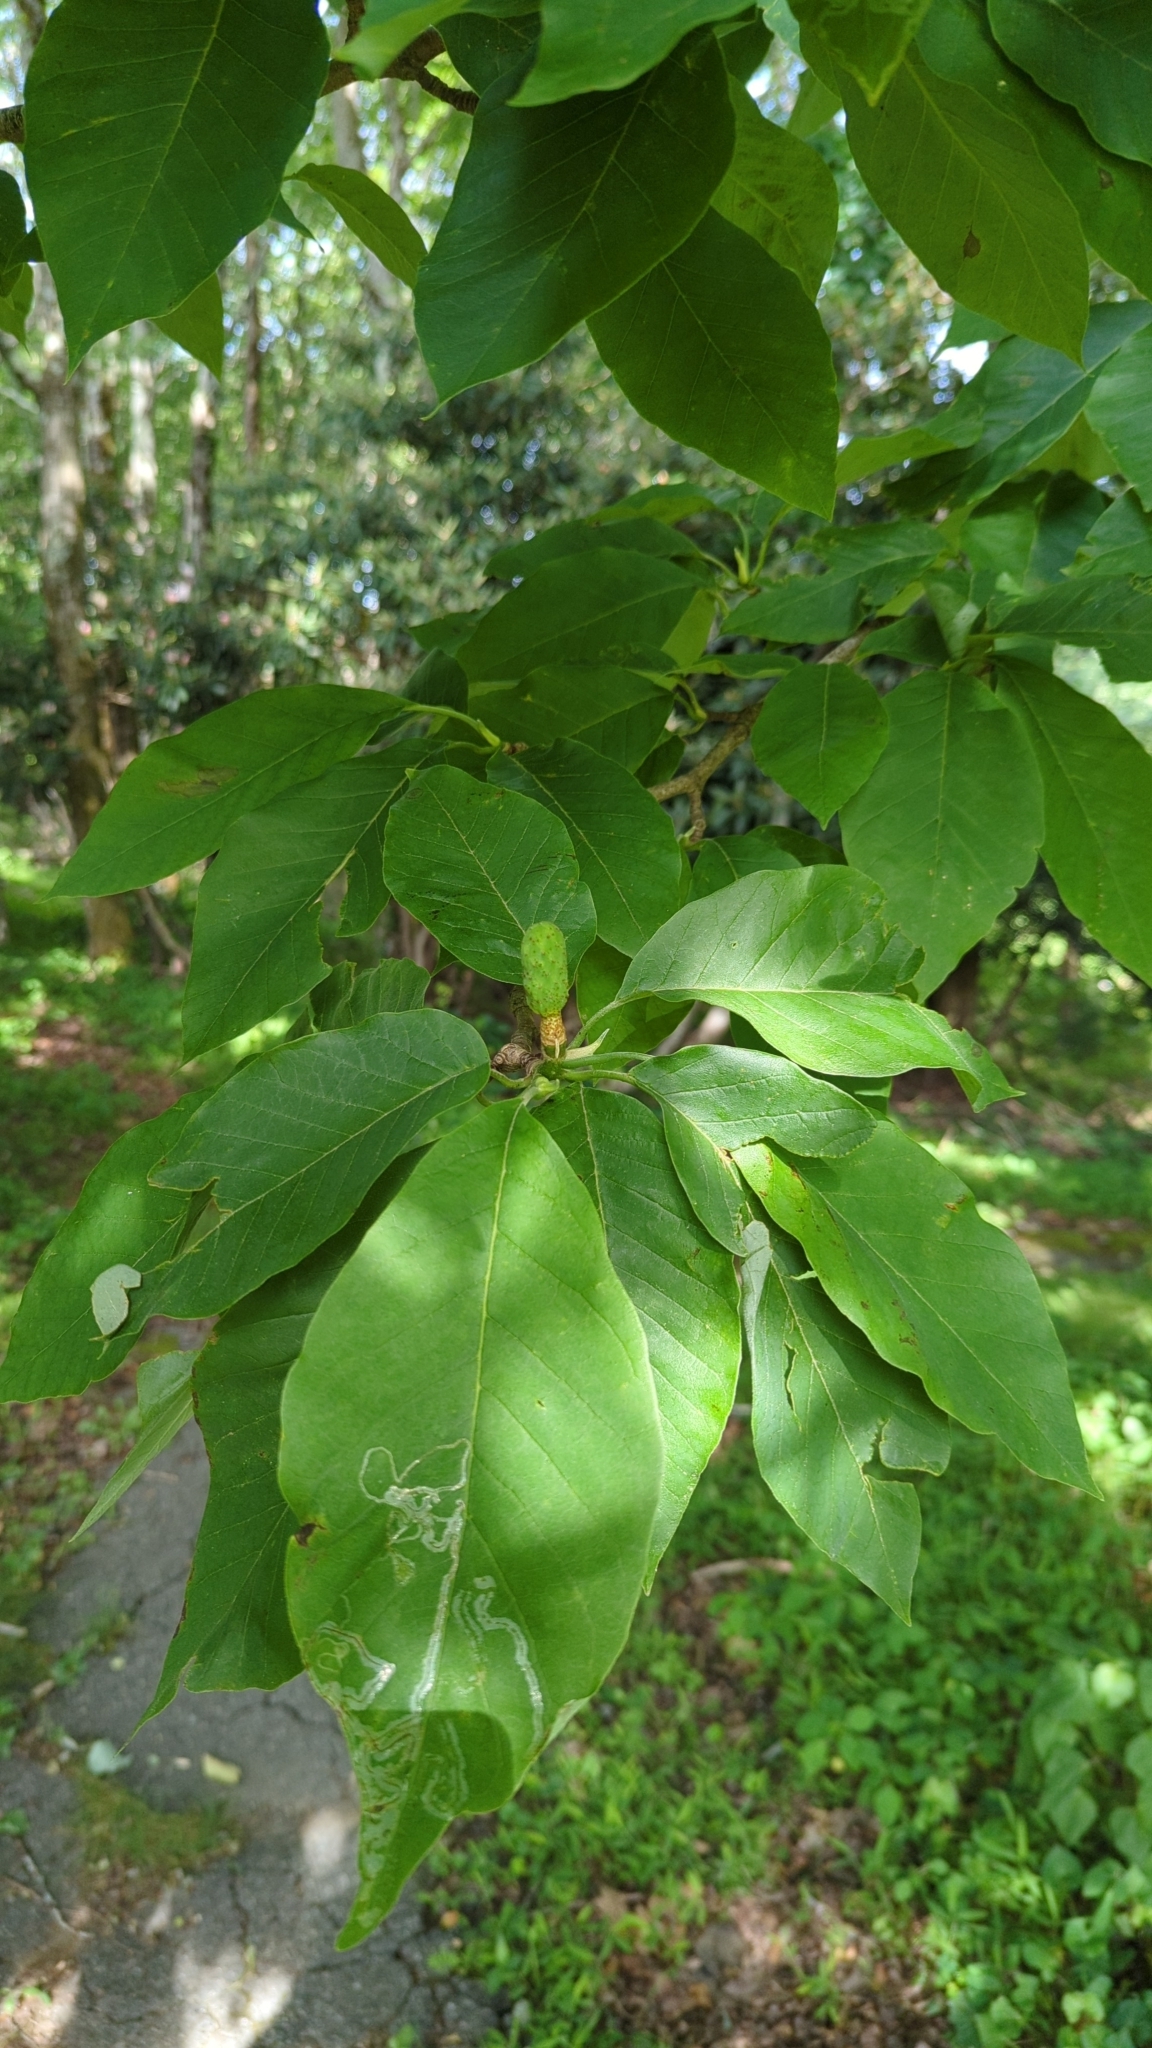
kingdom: Plantae
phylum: Tracheophyta
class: Magnoliopsida
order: Magnoliales
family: Magnoliaceae
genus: Magnolia
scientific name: Magnolia acuminata
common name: Cucumber magnolia
